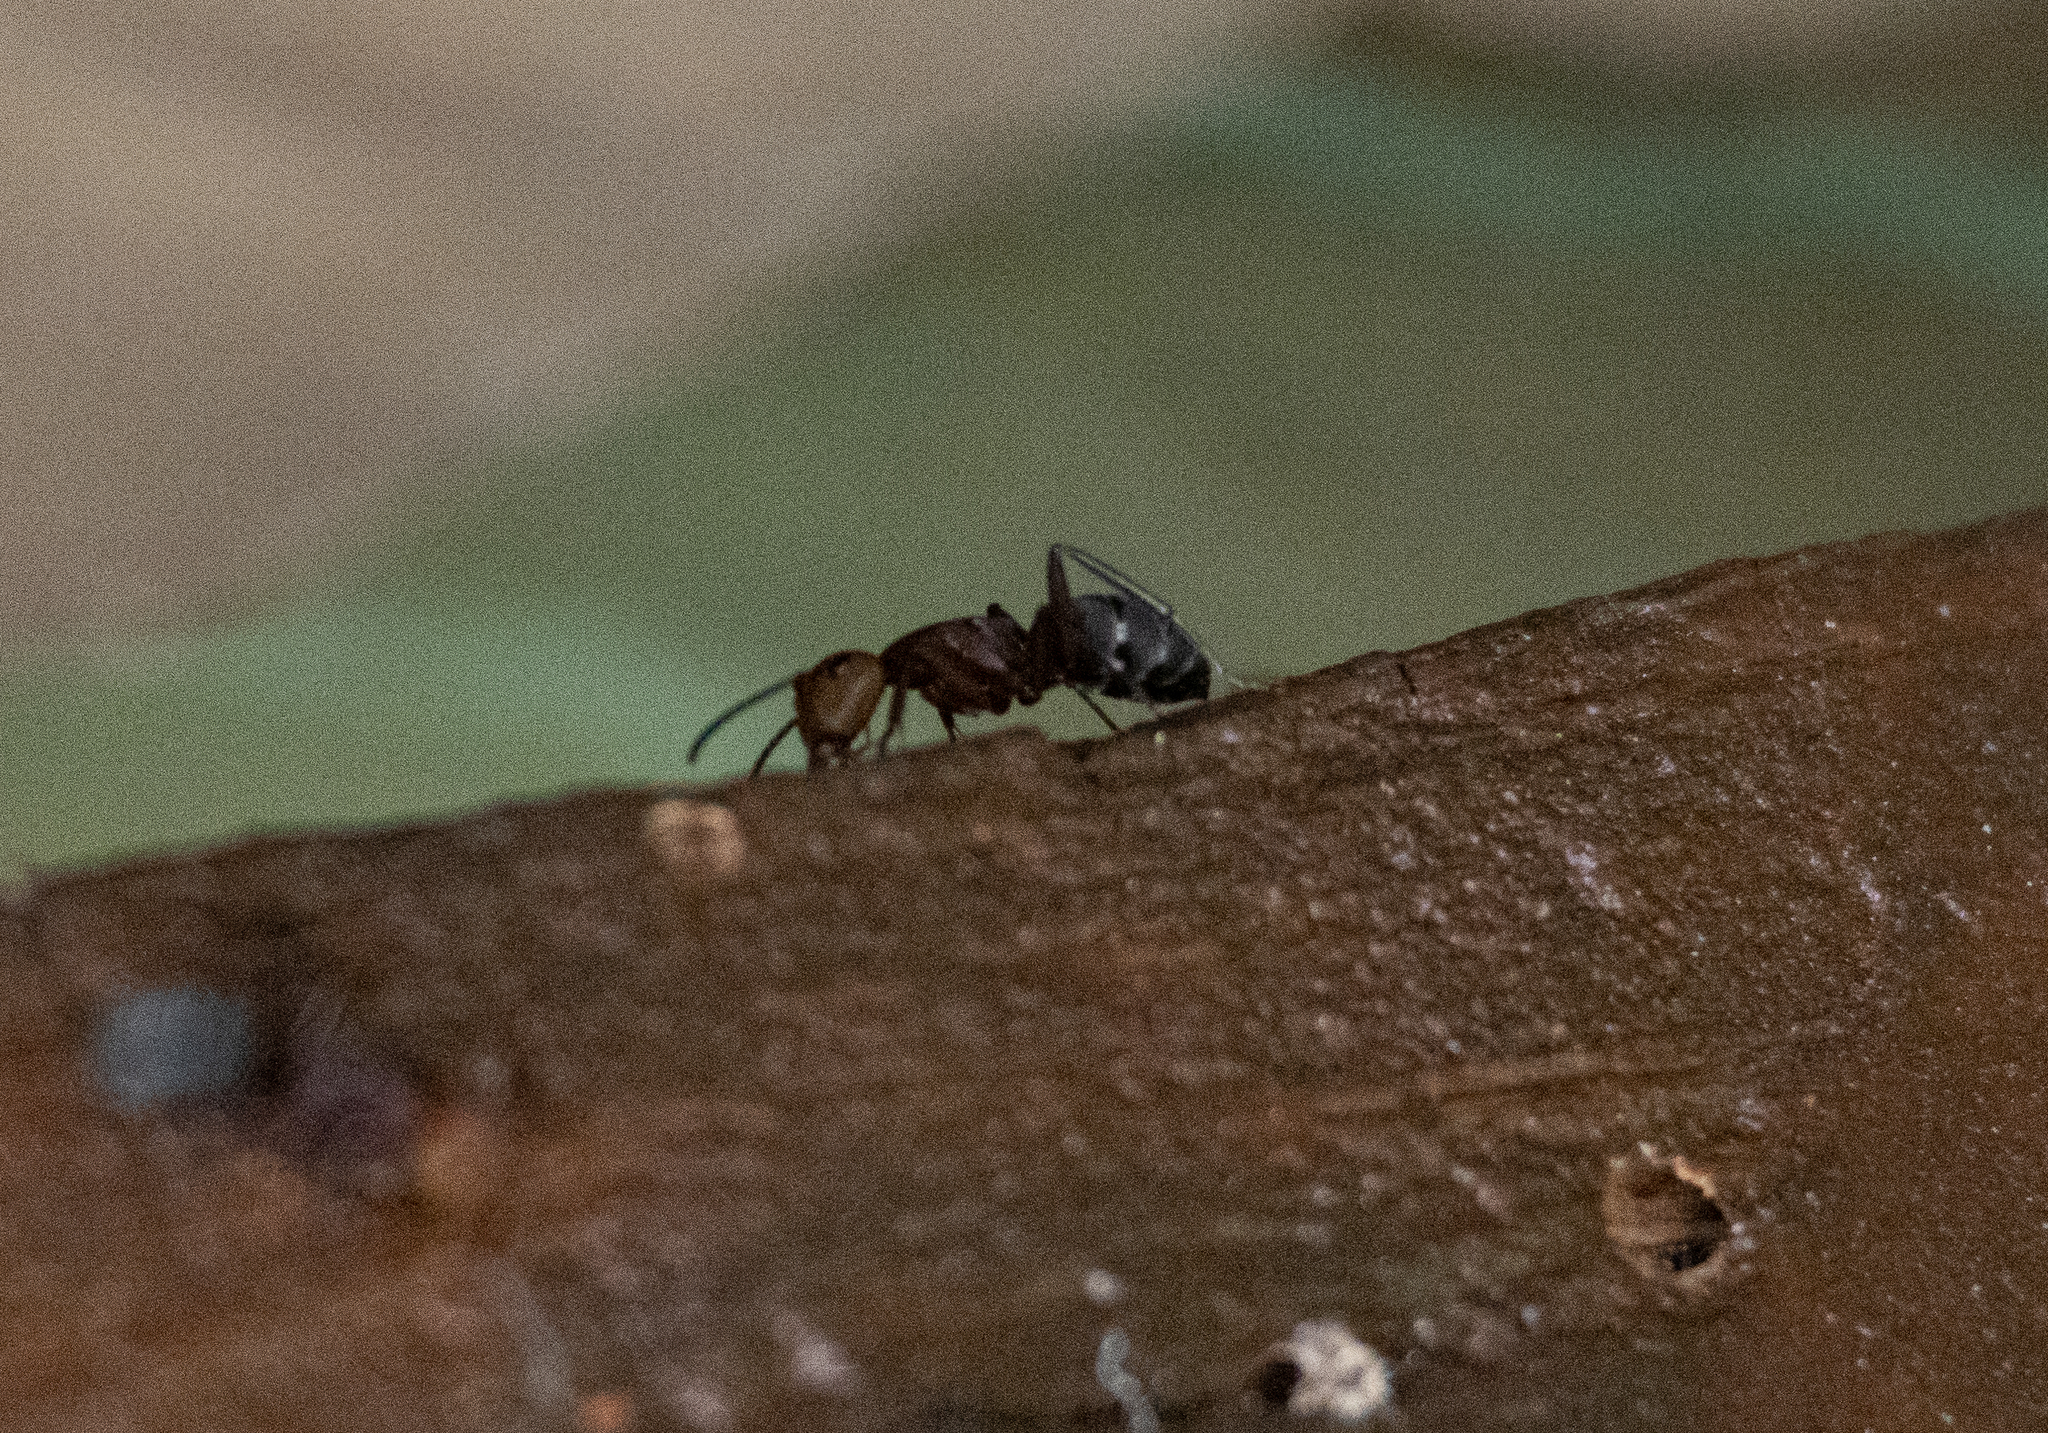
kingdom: Animalia
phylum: Arthropoda
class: Insecta
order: Hymenoptera
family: Formicidae
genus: Camponotus
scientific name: Camponotus rectangularis
